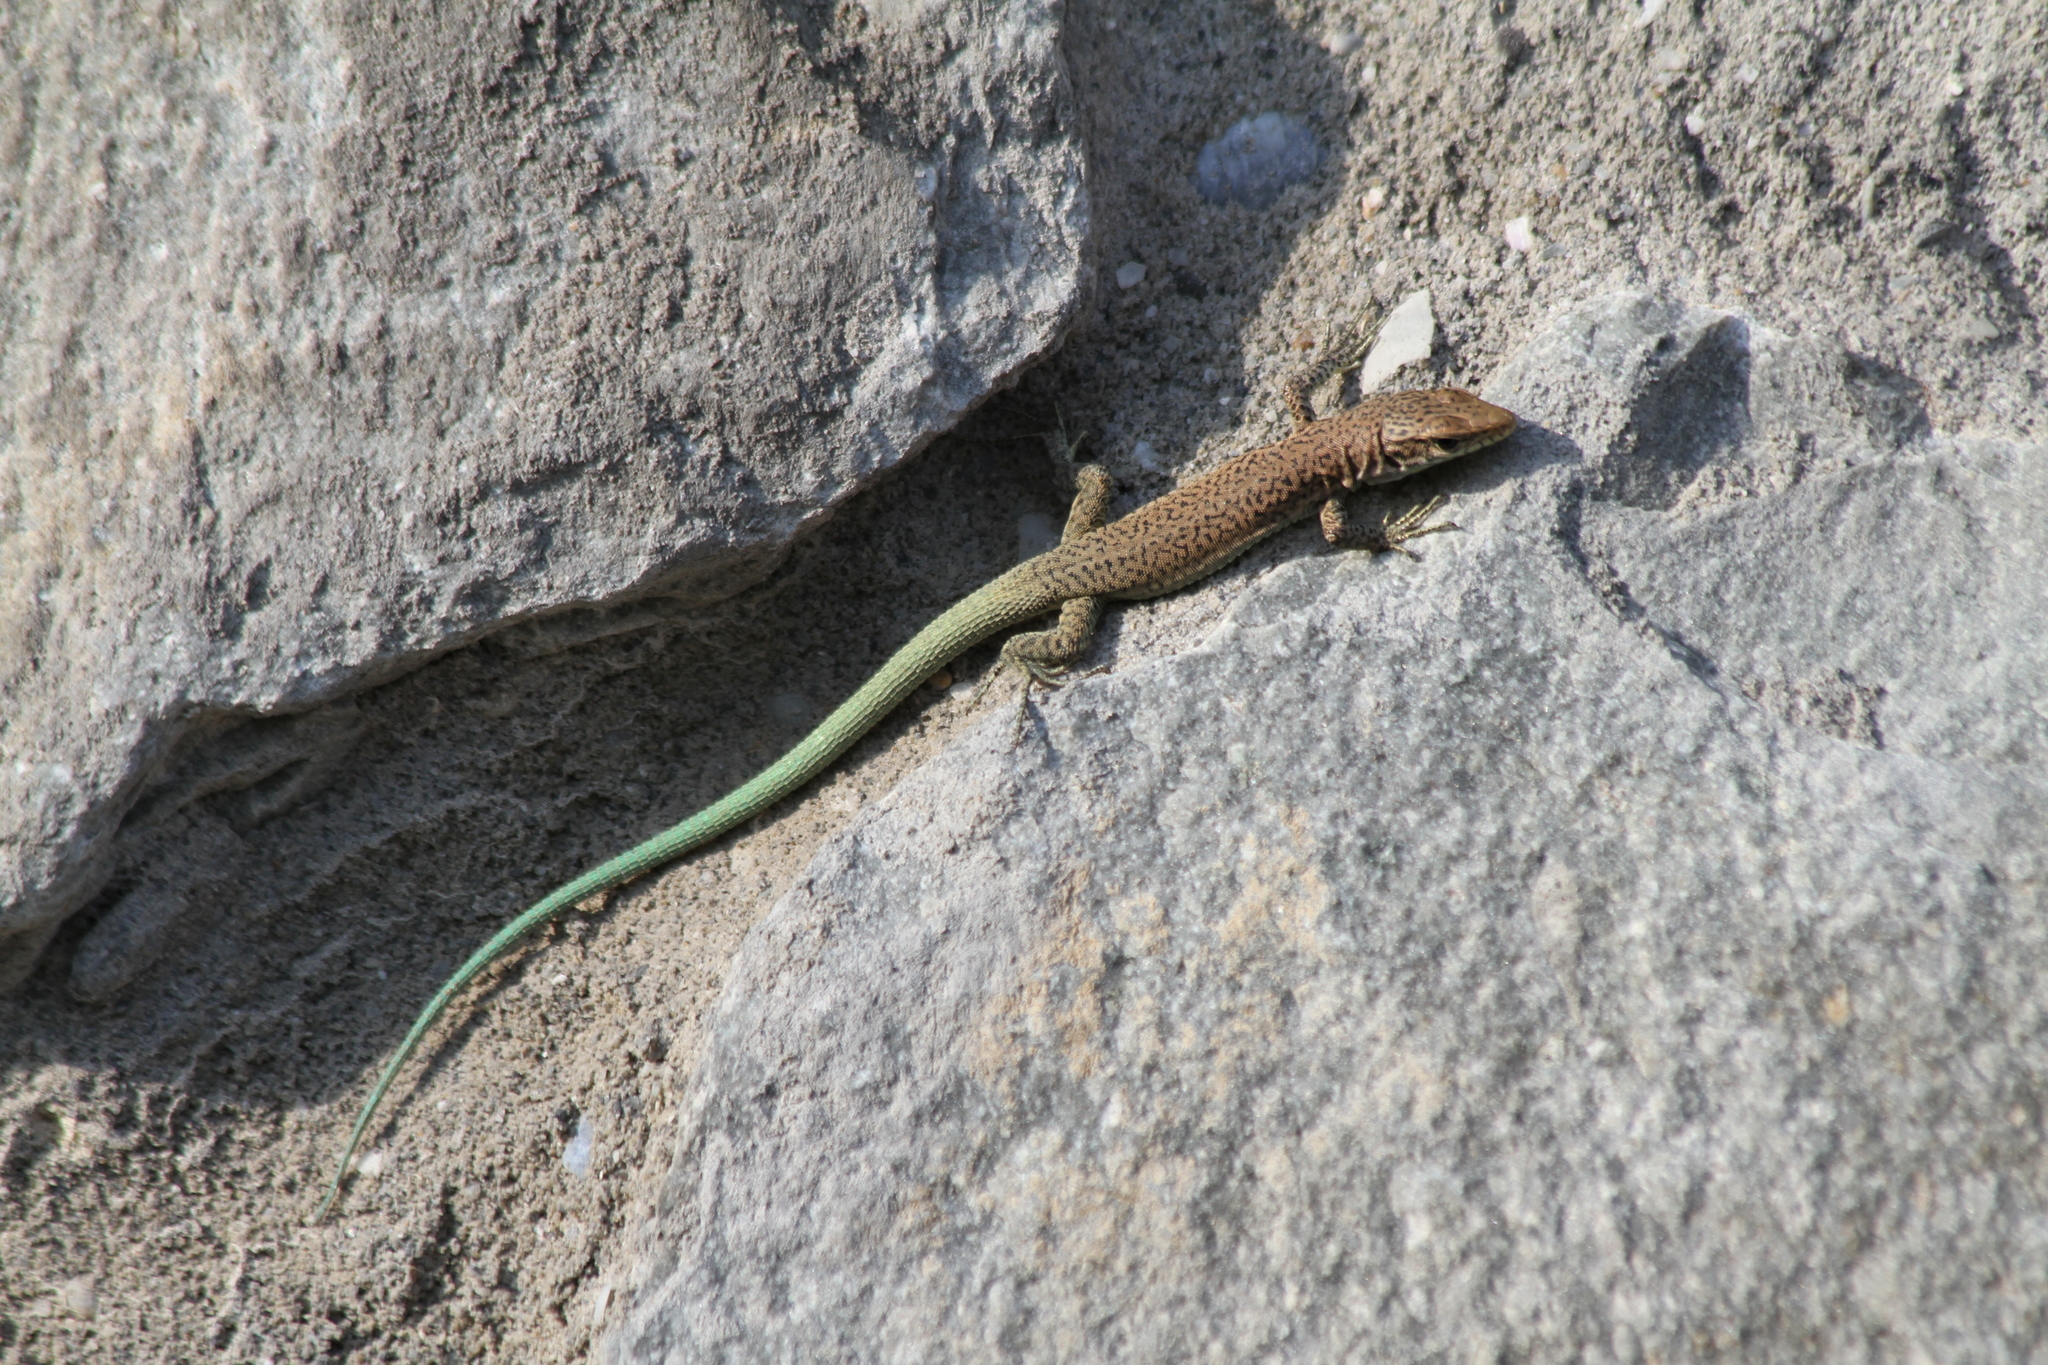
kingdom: Animalia
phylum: Chordata
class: Squamata
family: Lacertidae
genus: Darevskia
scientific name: Darevskia lindholmi
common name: Crimean rock lizard
